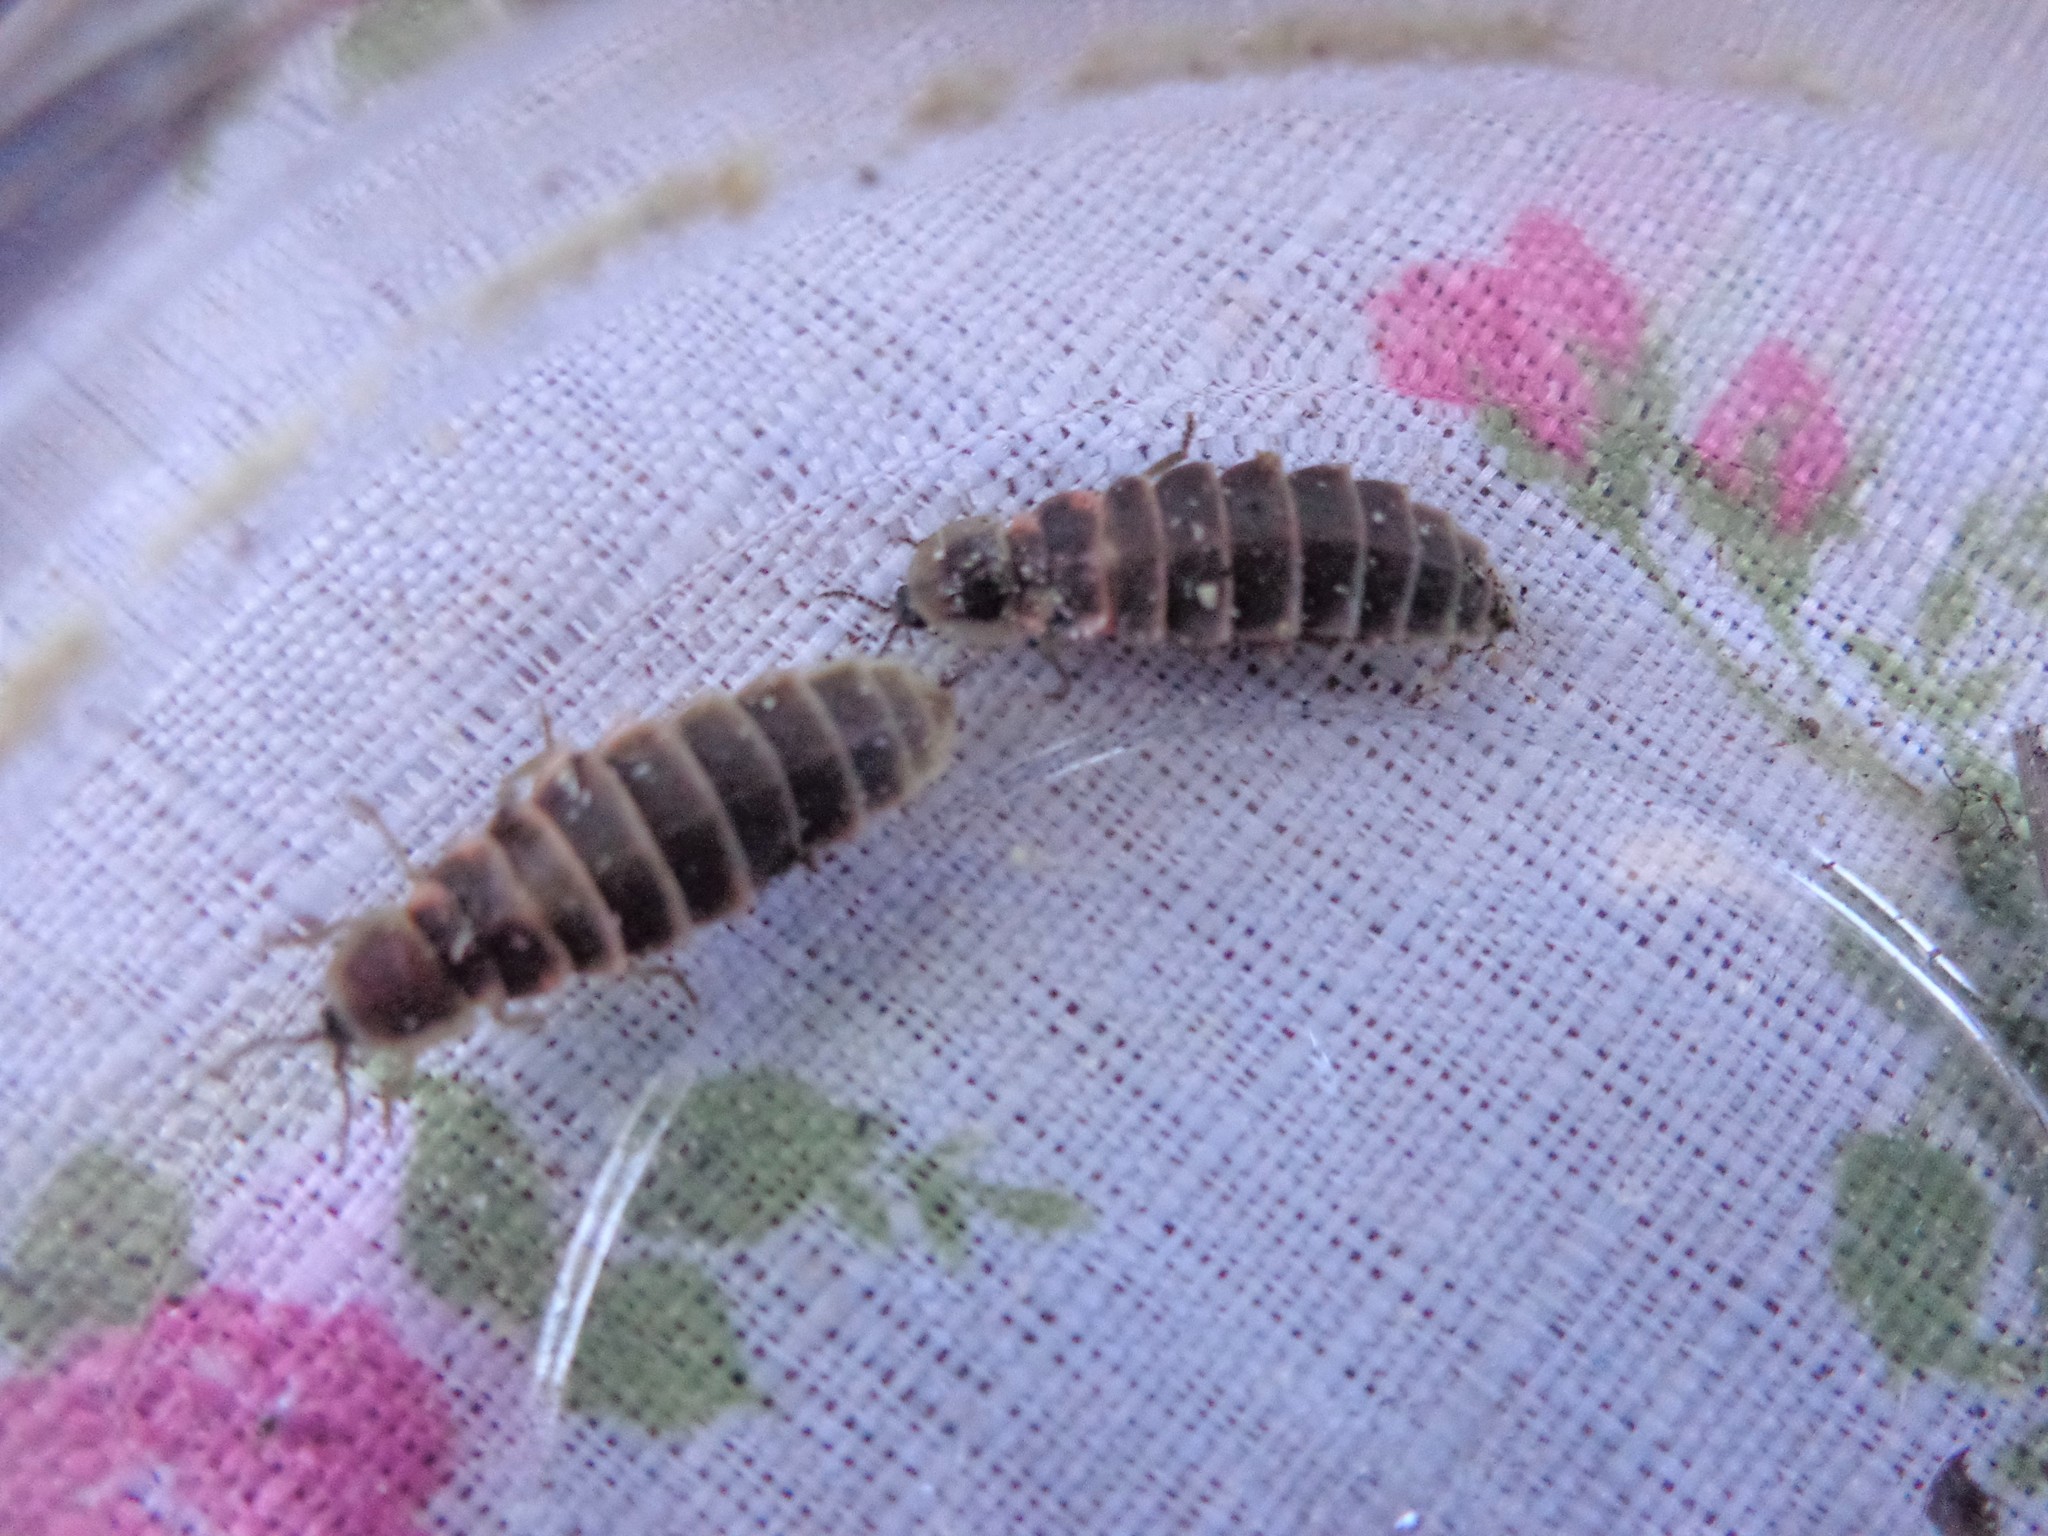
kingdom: Animalia
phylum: Arthropoda
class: Insecta
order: Coleoptera
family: Lampyridae
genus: Lampyris
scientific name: Lampyris noctiluca
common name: Glow-worm
